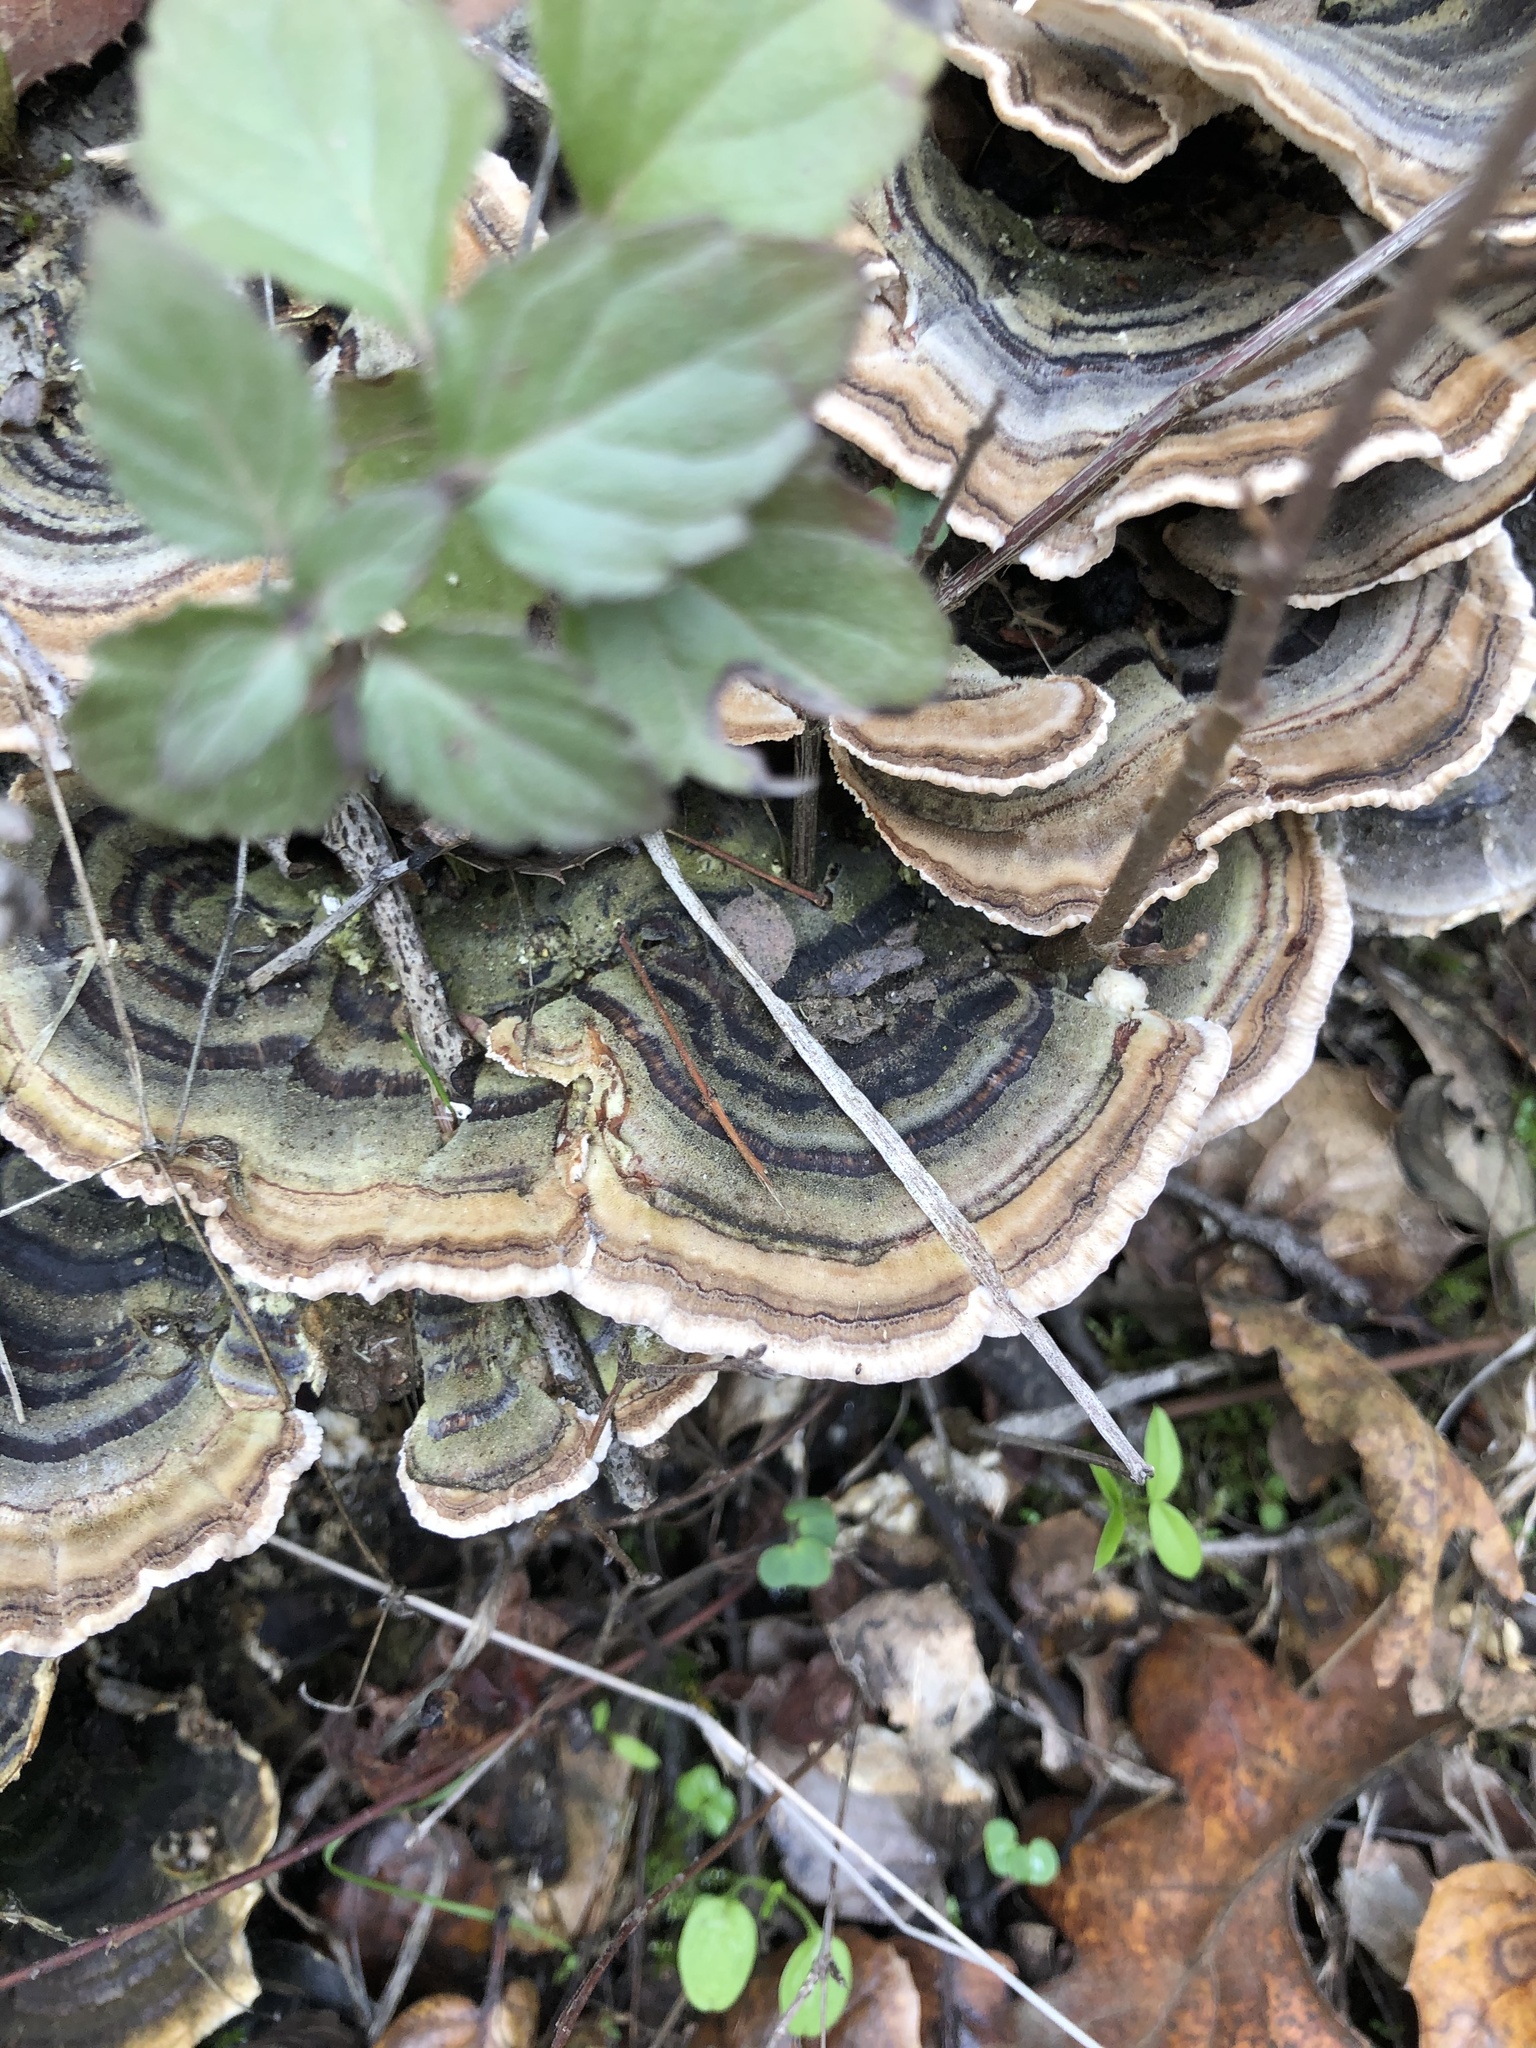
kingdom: Fungi
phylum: Basidiomycota
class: Agaricomycetes
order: Polyporales
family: Polyporaceae
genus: Trametes
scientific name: Trametes versicolor
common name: Turkeytail
